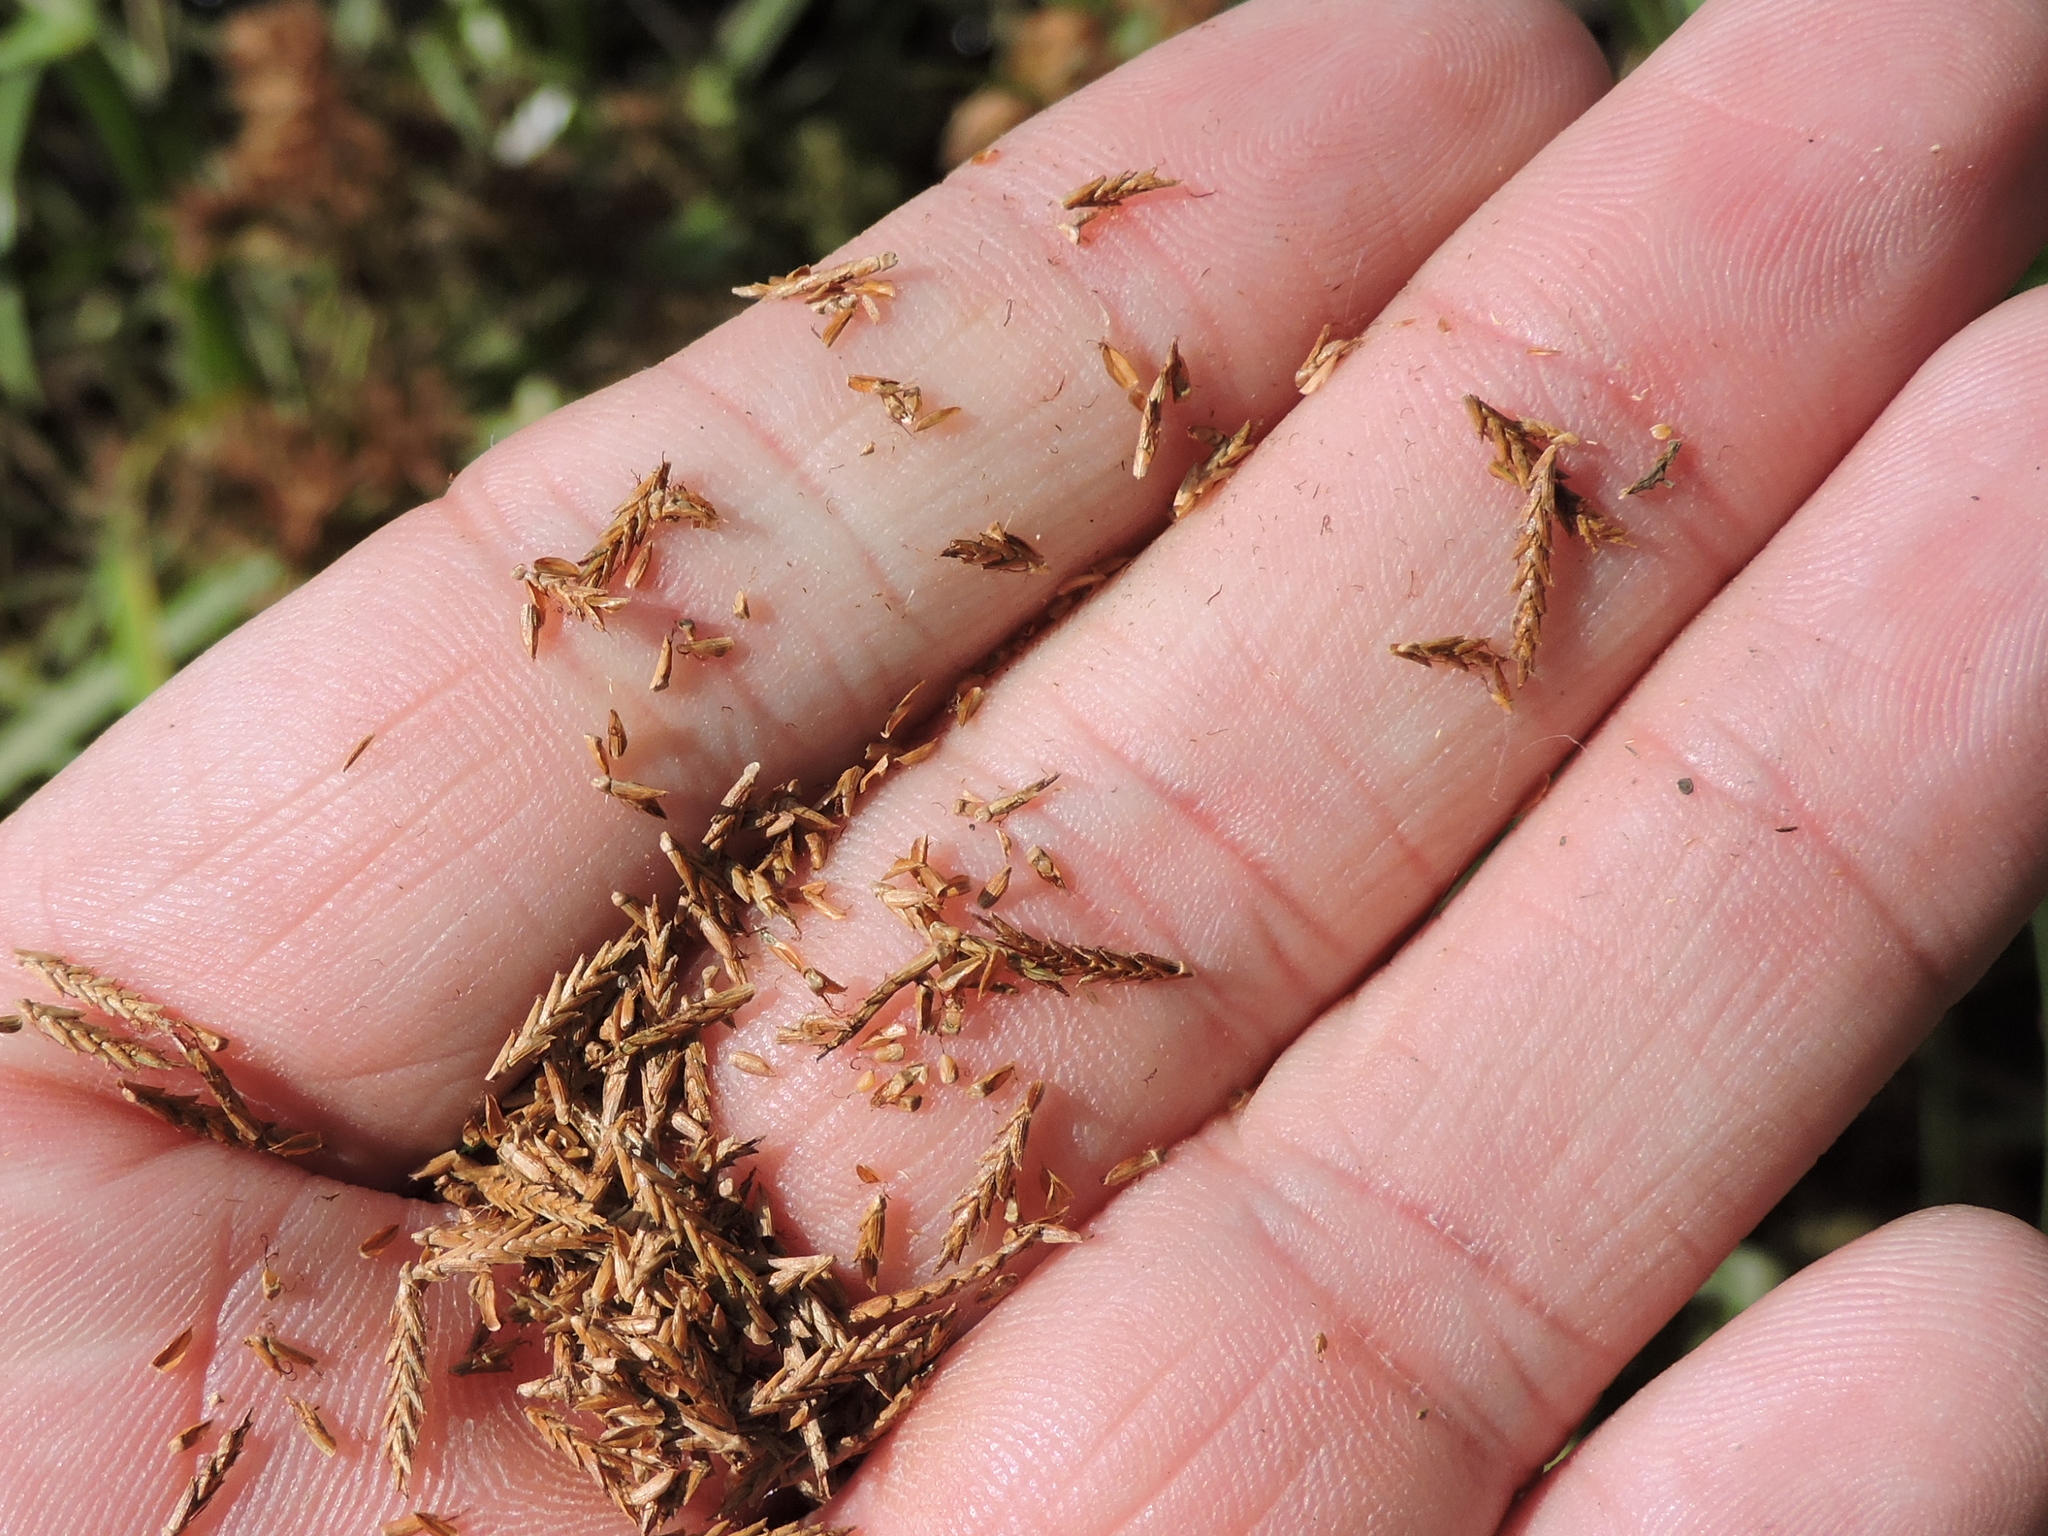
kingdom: Plantae
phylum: Tracheophyta
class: Liliopsida
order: Poales
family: Cyperaceae
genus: Cyperus
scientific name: Cyperus odoratus
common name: Fragrant flatsedge
